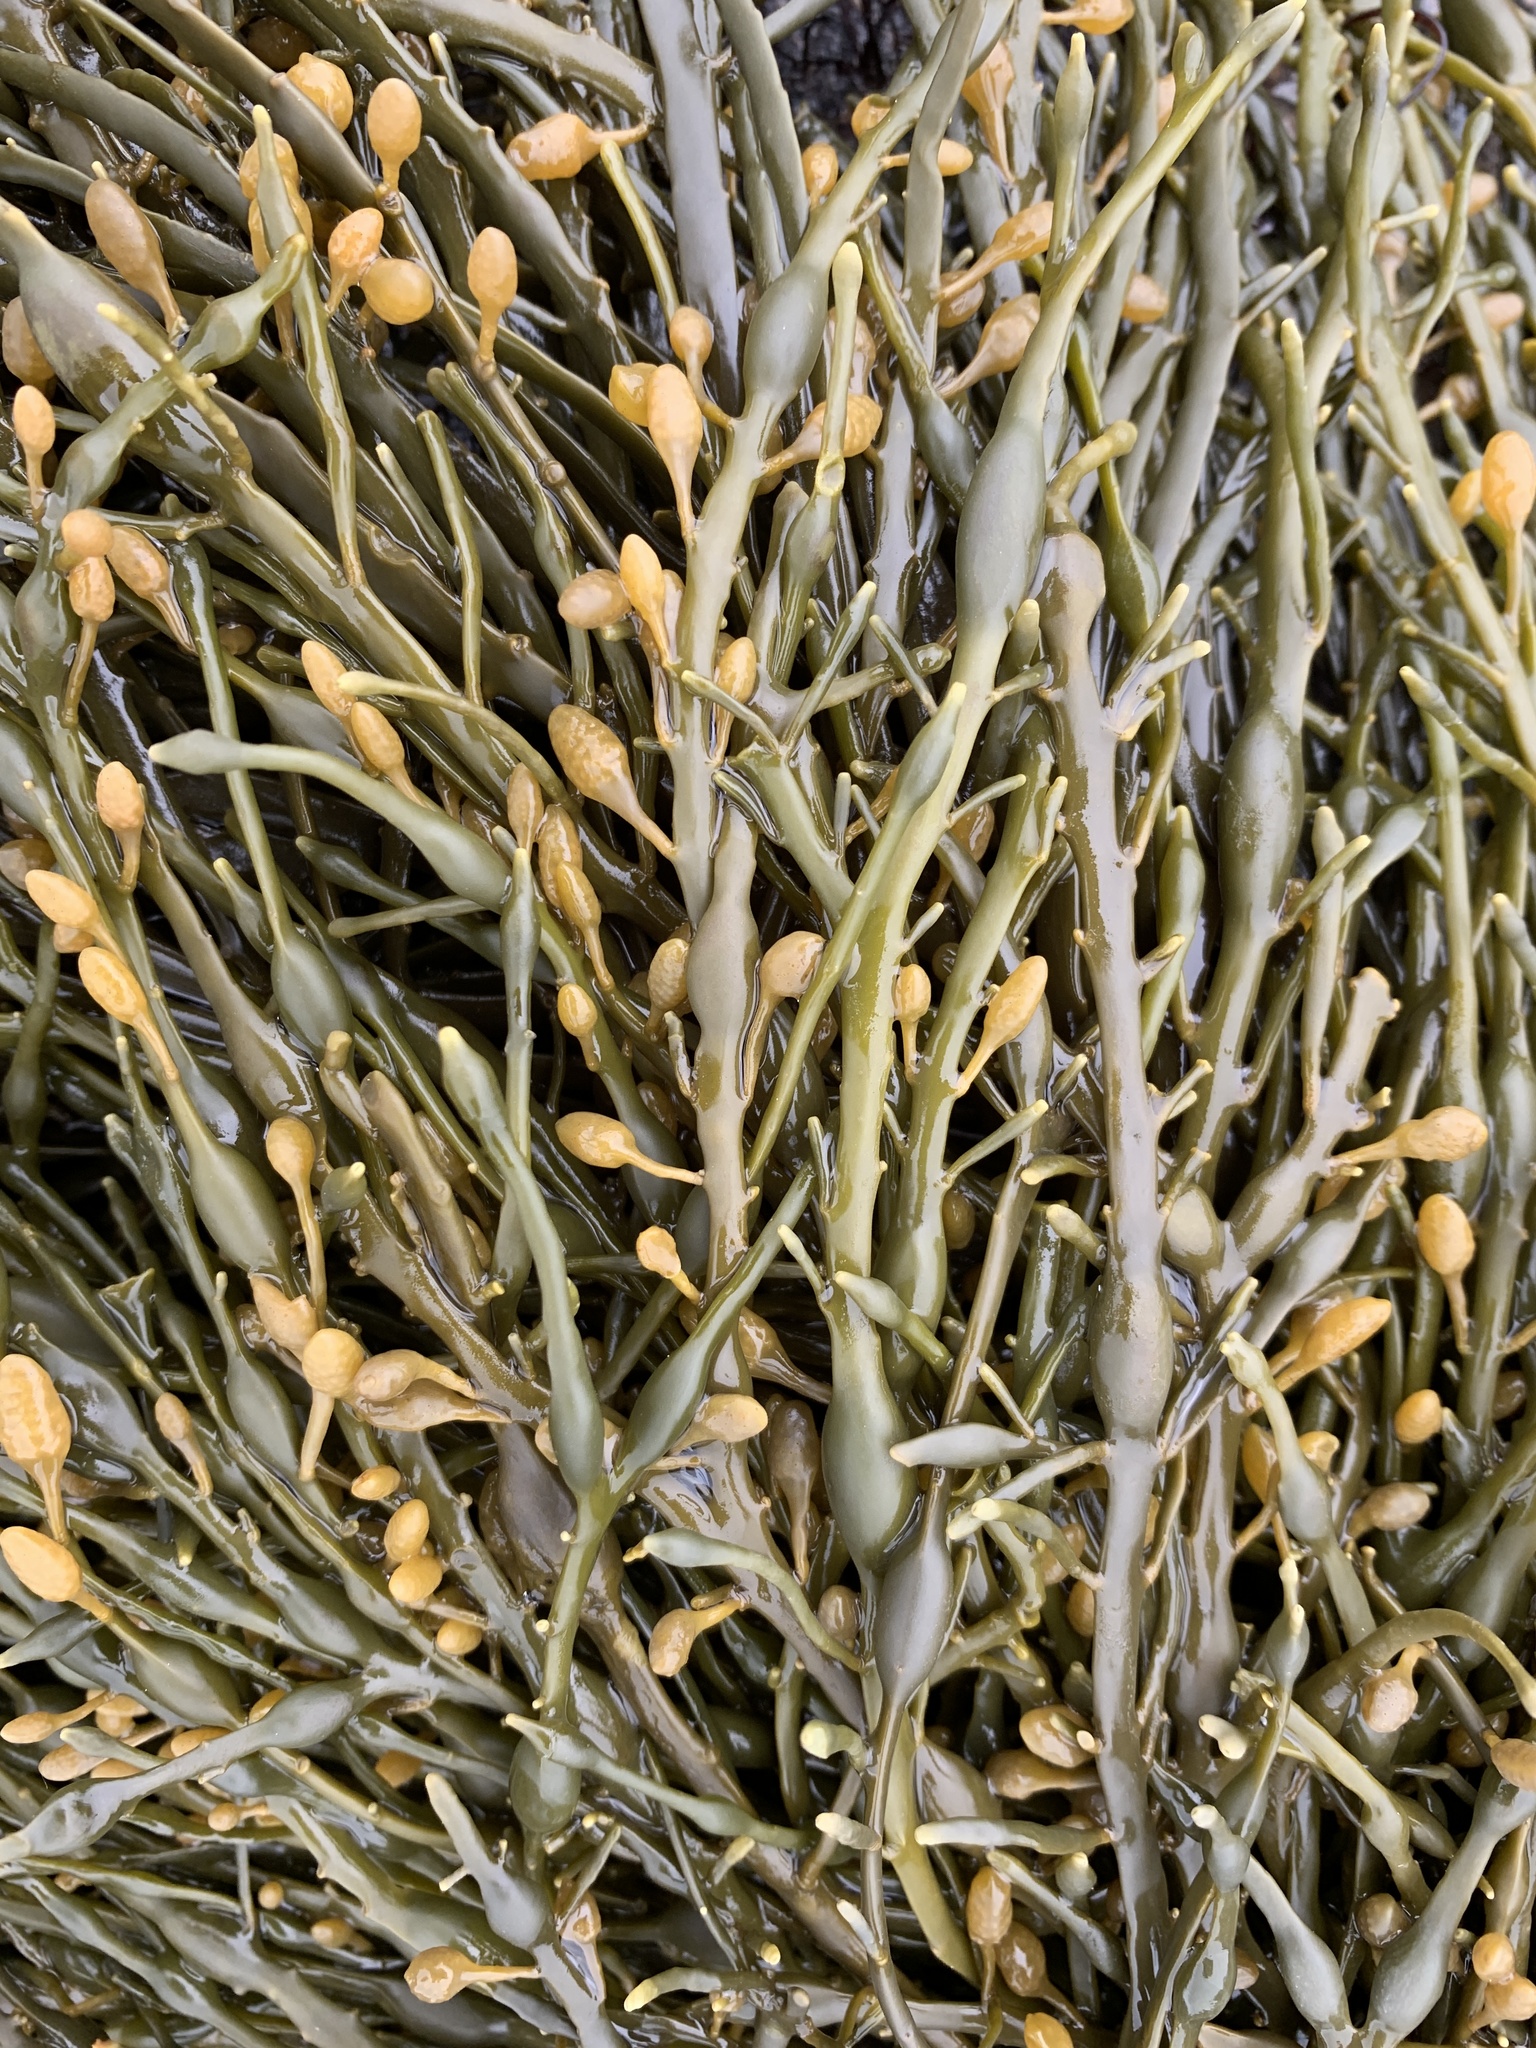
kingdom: Chromista
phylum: Ochrophyta
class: Phaeophyceae
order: Fucales
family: Fucaceae
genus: Ascophyllum
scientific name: Ascophyllum nodosum
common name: Knotted wrack
